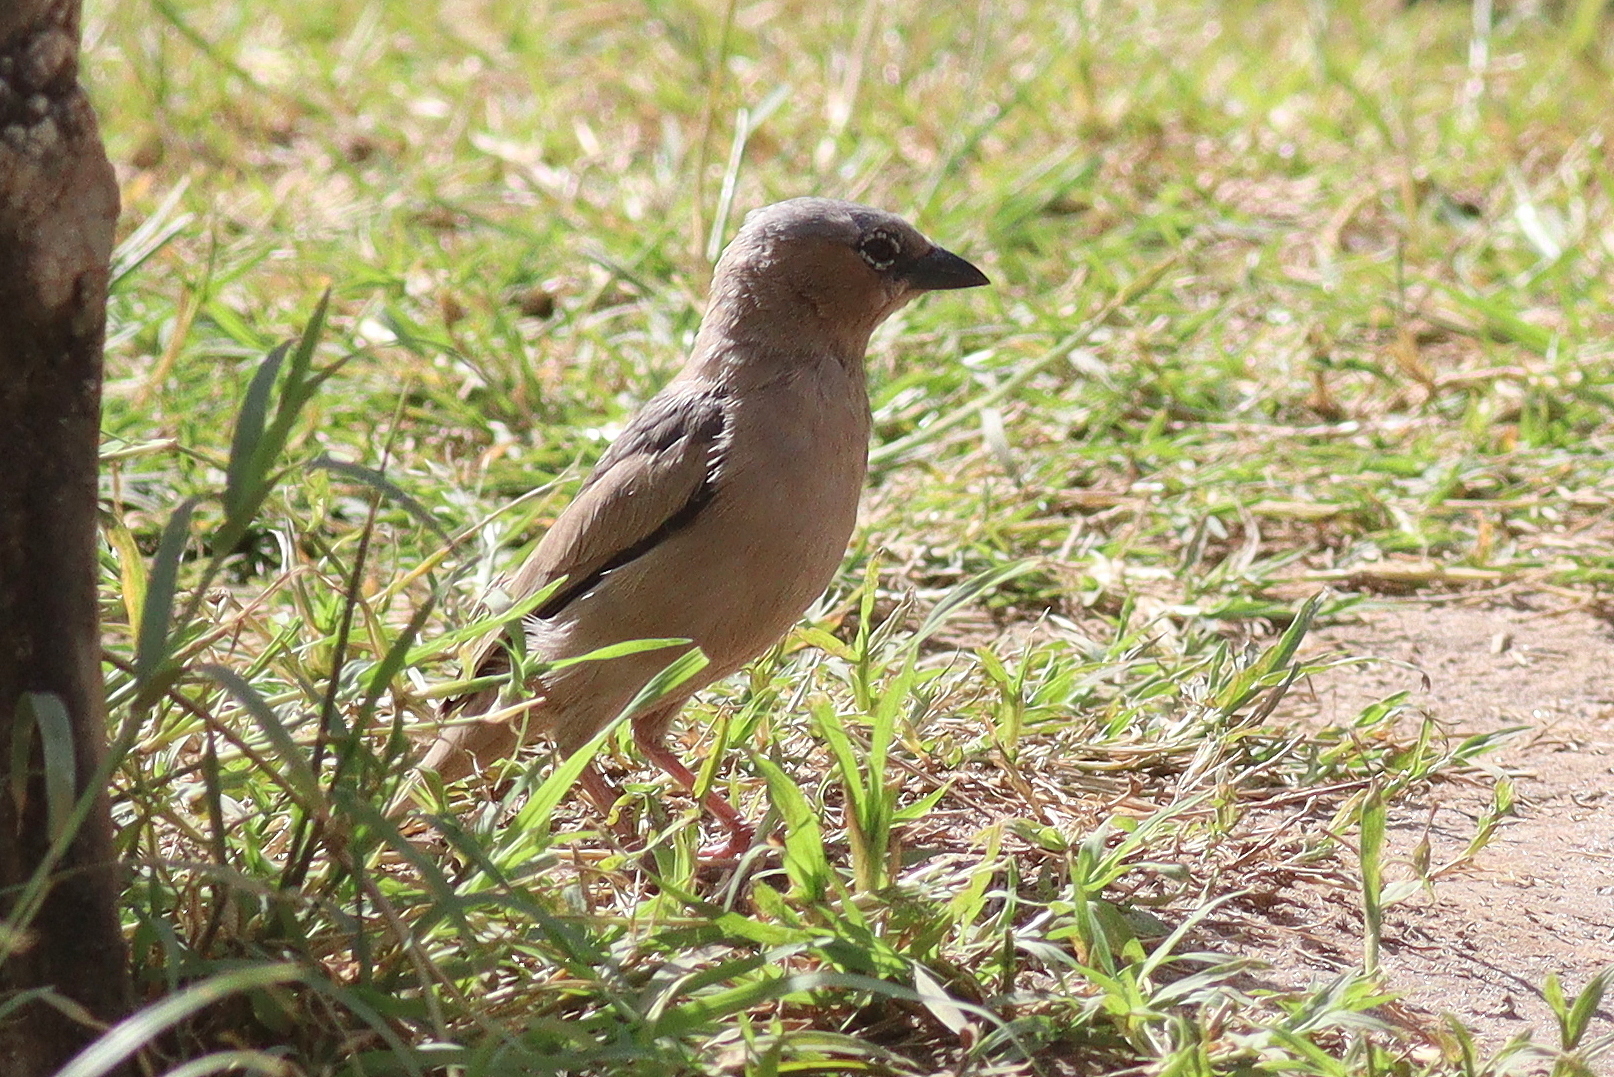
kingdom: Animalia
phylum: Chordata
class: Aves
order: Passeriformes
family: Passeridae
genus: Pseudonigrita
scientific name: Pseudonigrita arnaudi
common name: Grey-capped social weaver
